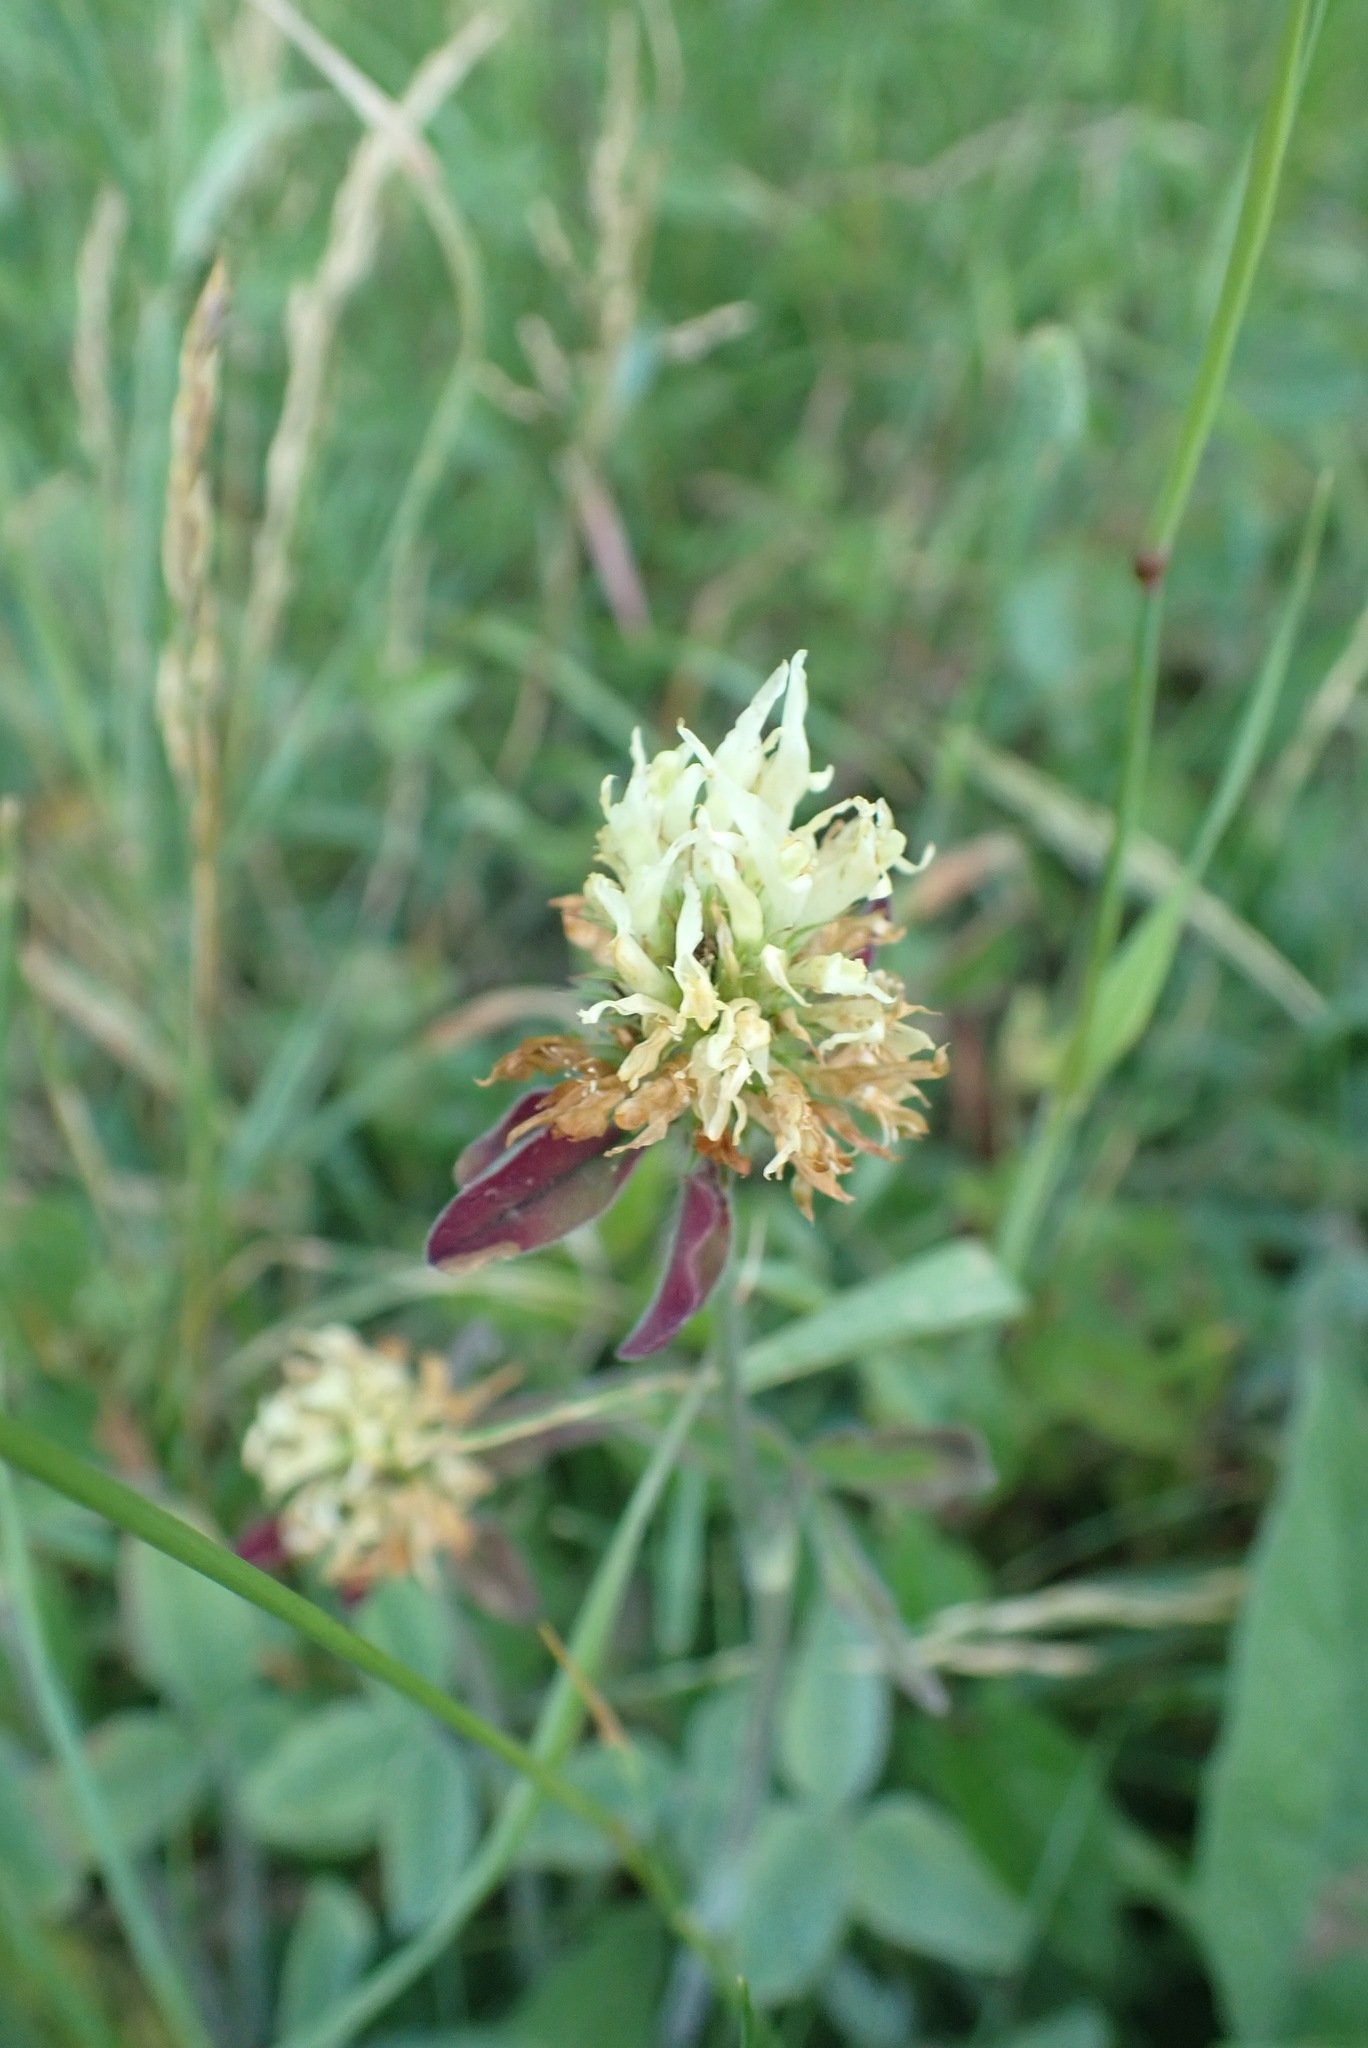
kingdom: Plantae
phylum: Tracheophyta
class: Magnoliopsida
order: Fabales
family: Fabaceae
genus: Trifolium
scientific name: Trifolium ochroleucon
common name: Sulphur clover
